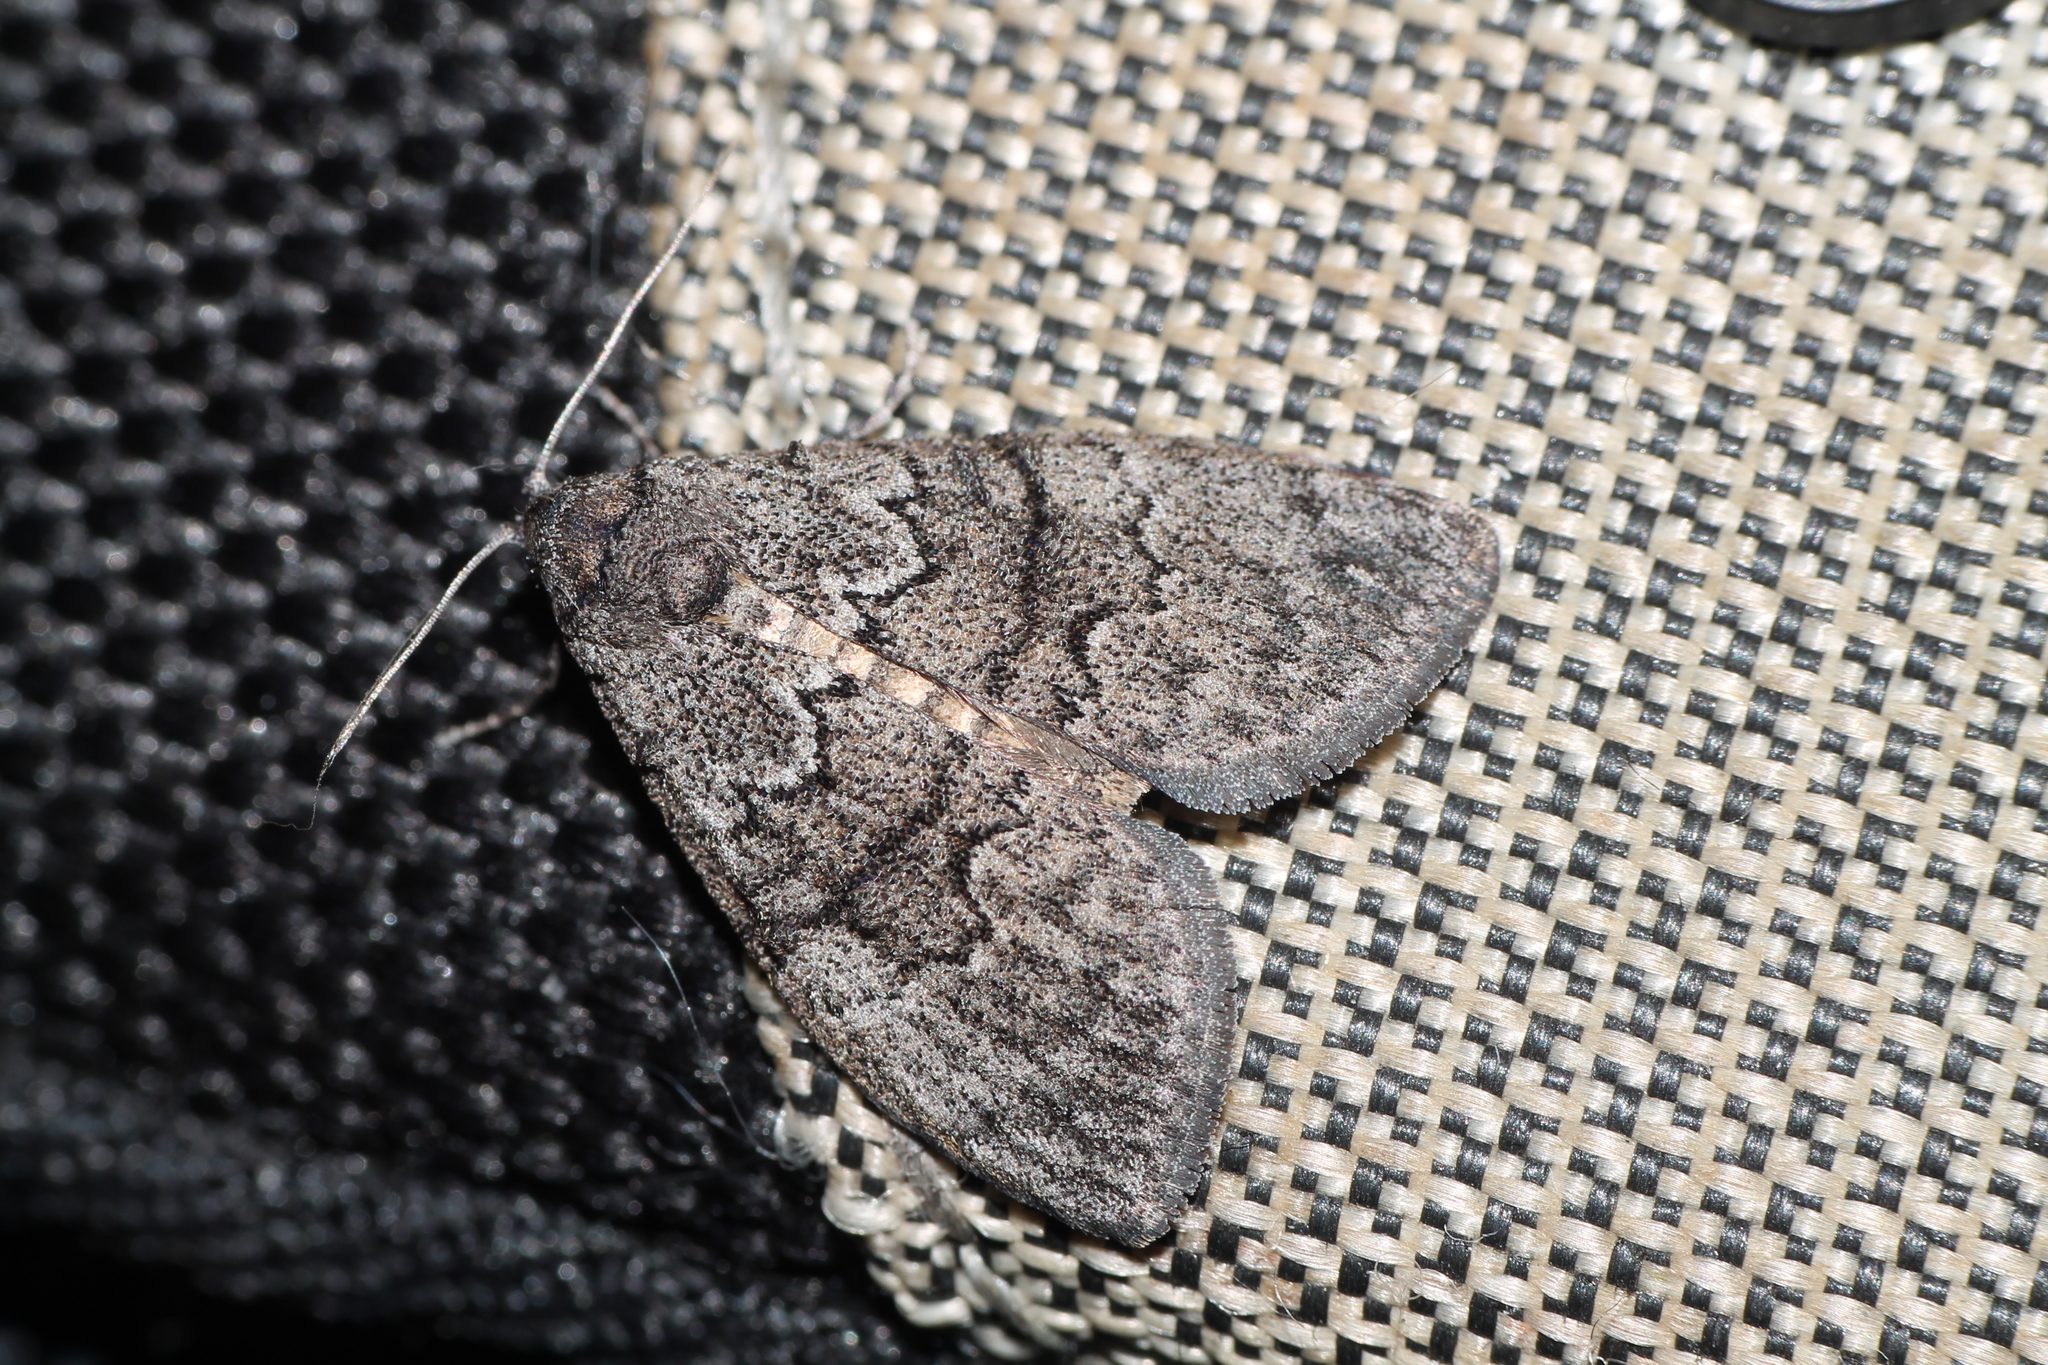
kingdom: Animalia
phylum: Arthropoda
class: Insecta
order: Lepidoptera
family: Nolidae
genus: Uraba
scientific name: Uraba lugens
